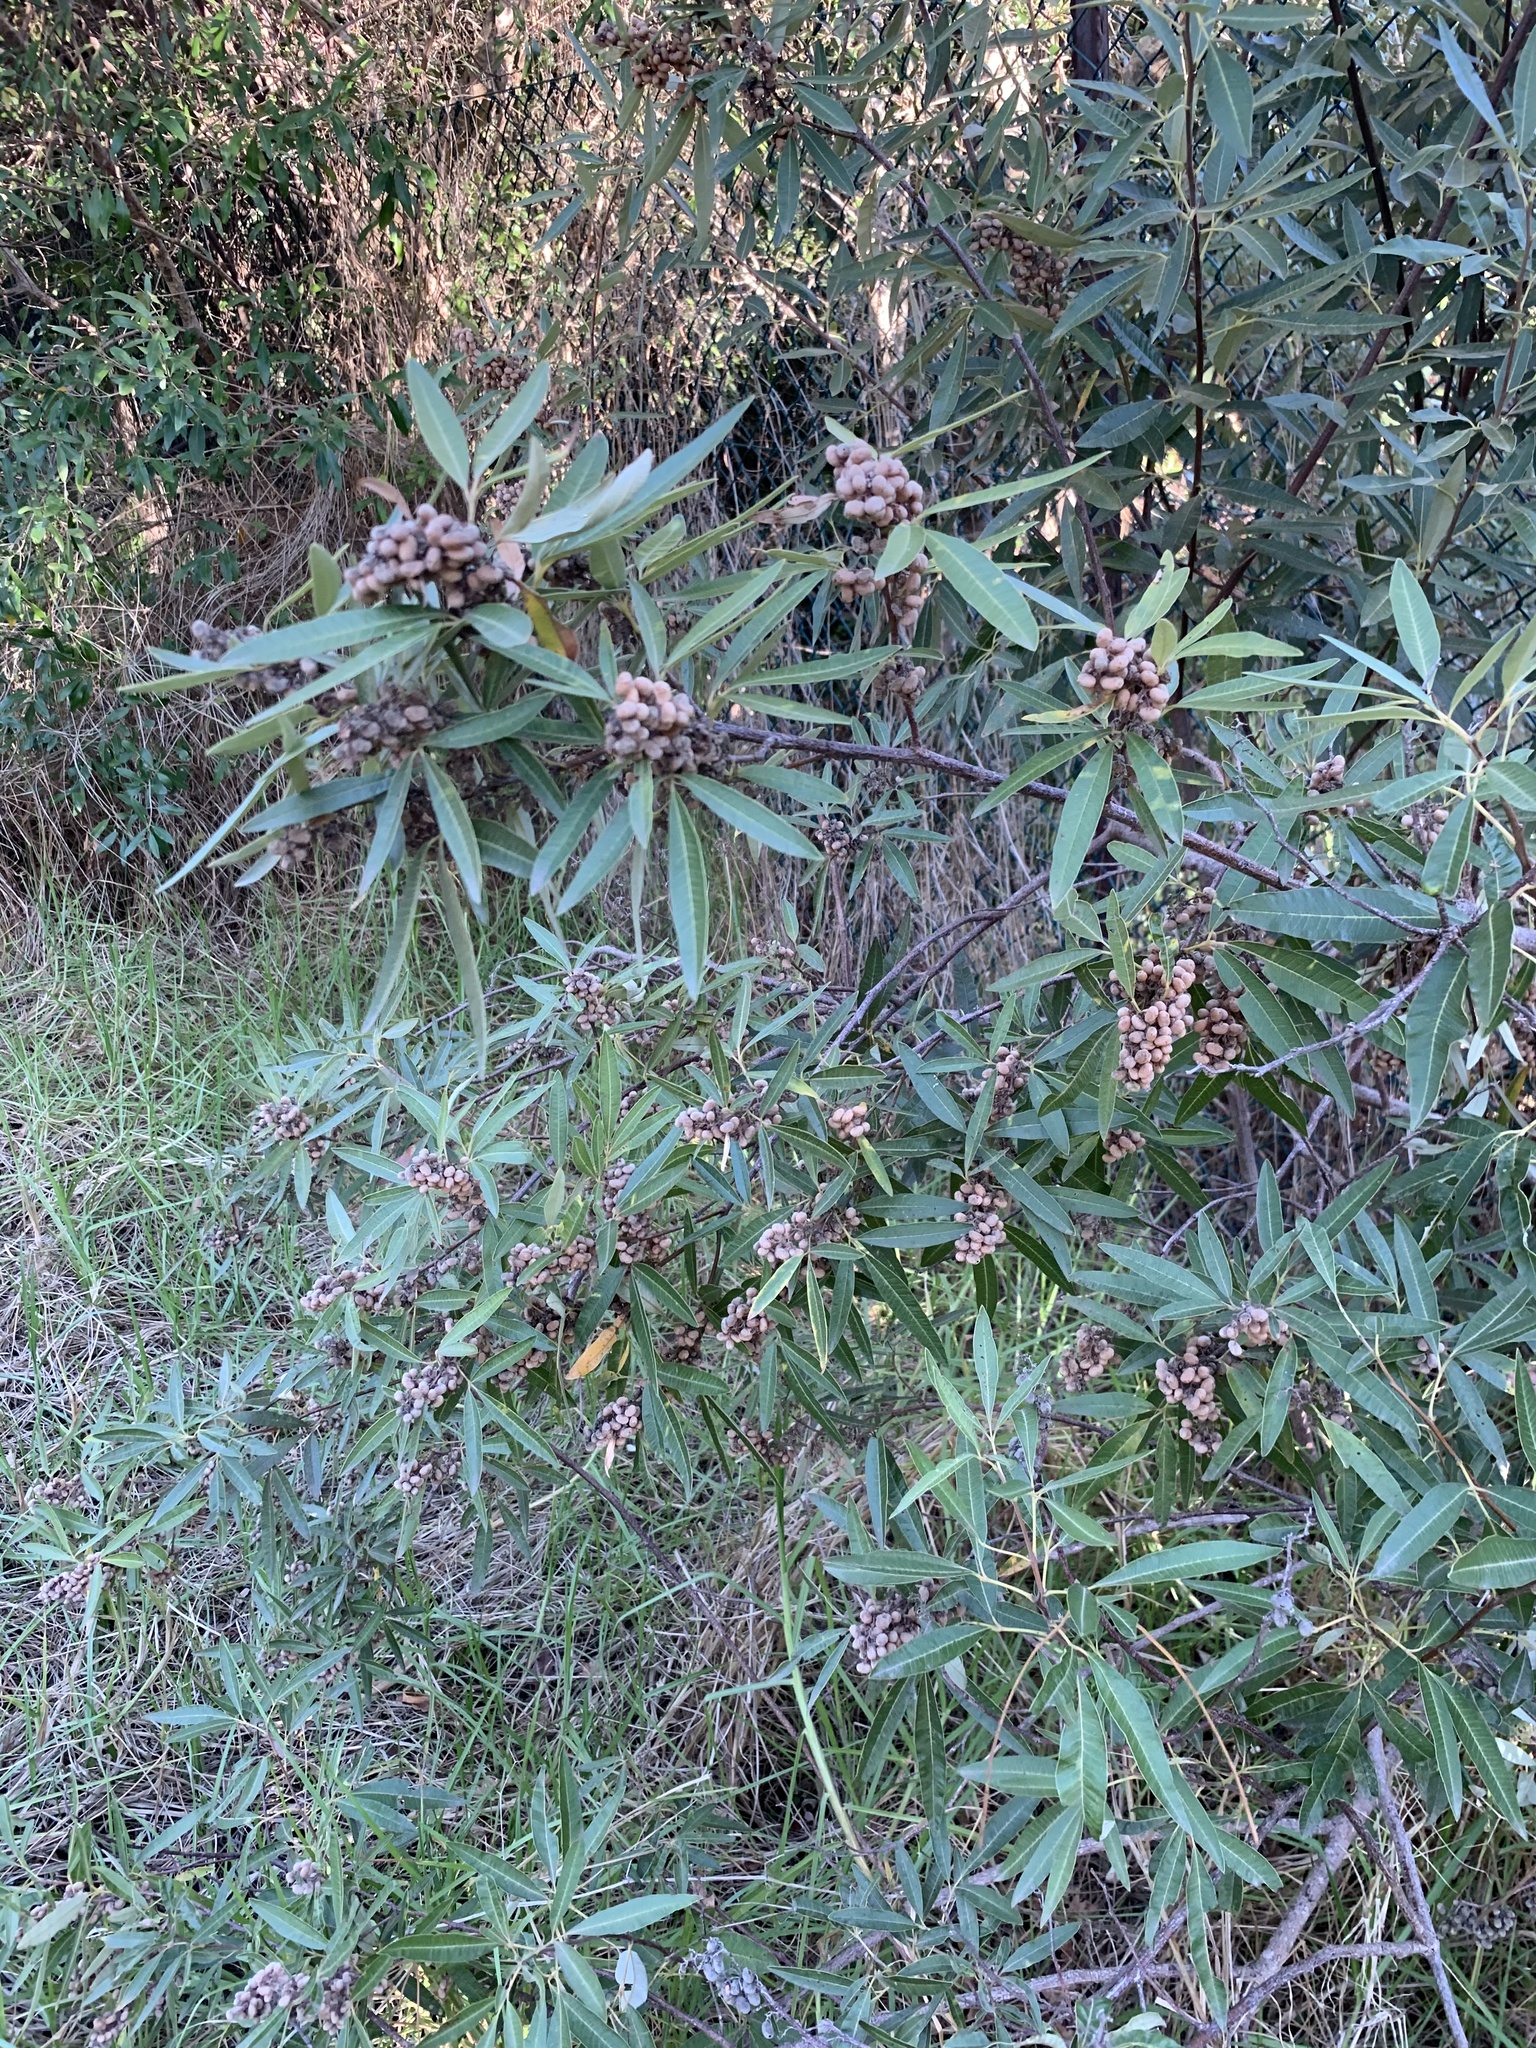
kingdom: Plantae
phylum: Tracheophyta
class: Magnoliopsida
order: Sapindales
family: Anacardiaceae
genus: Searsia
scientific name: Searsia angustifolia
